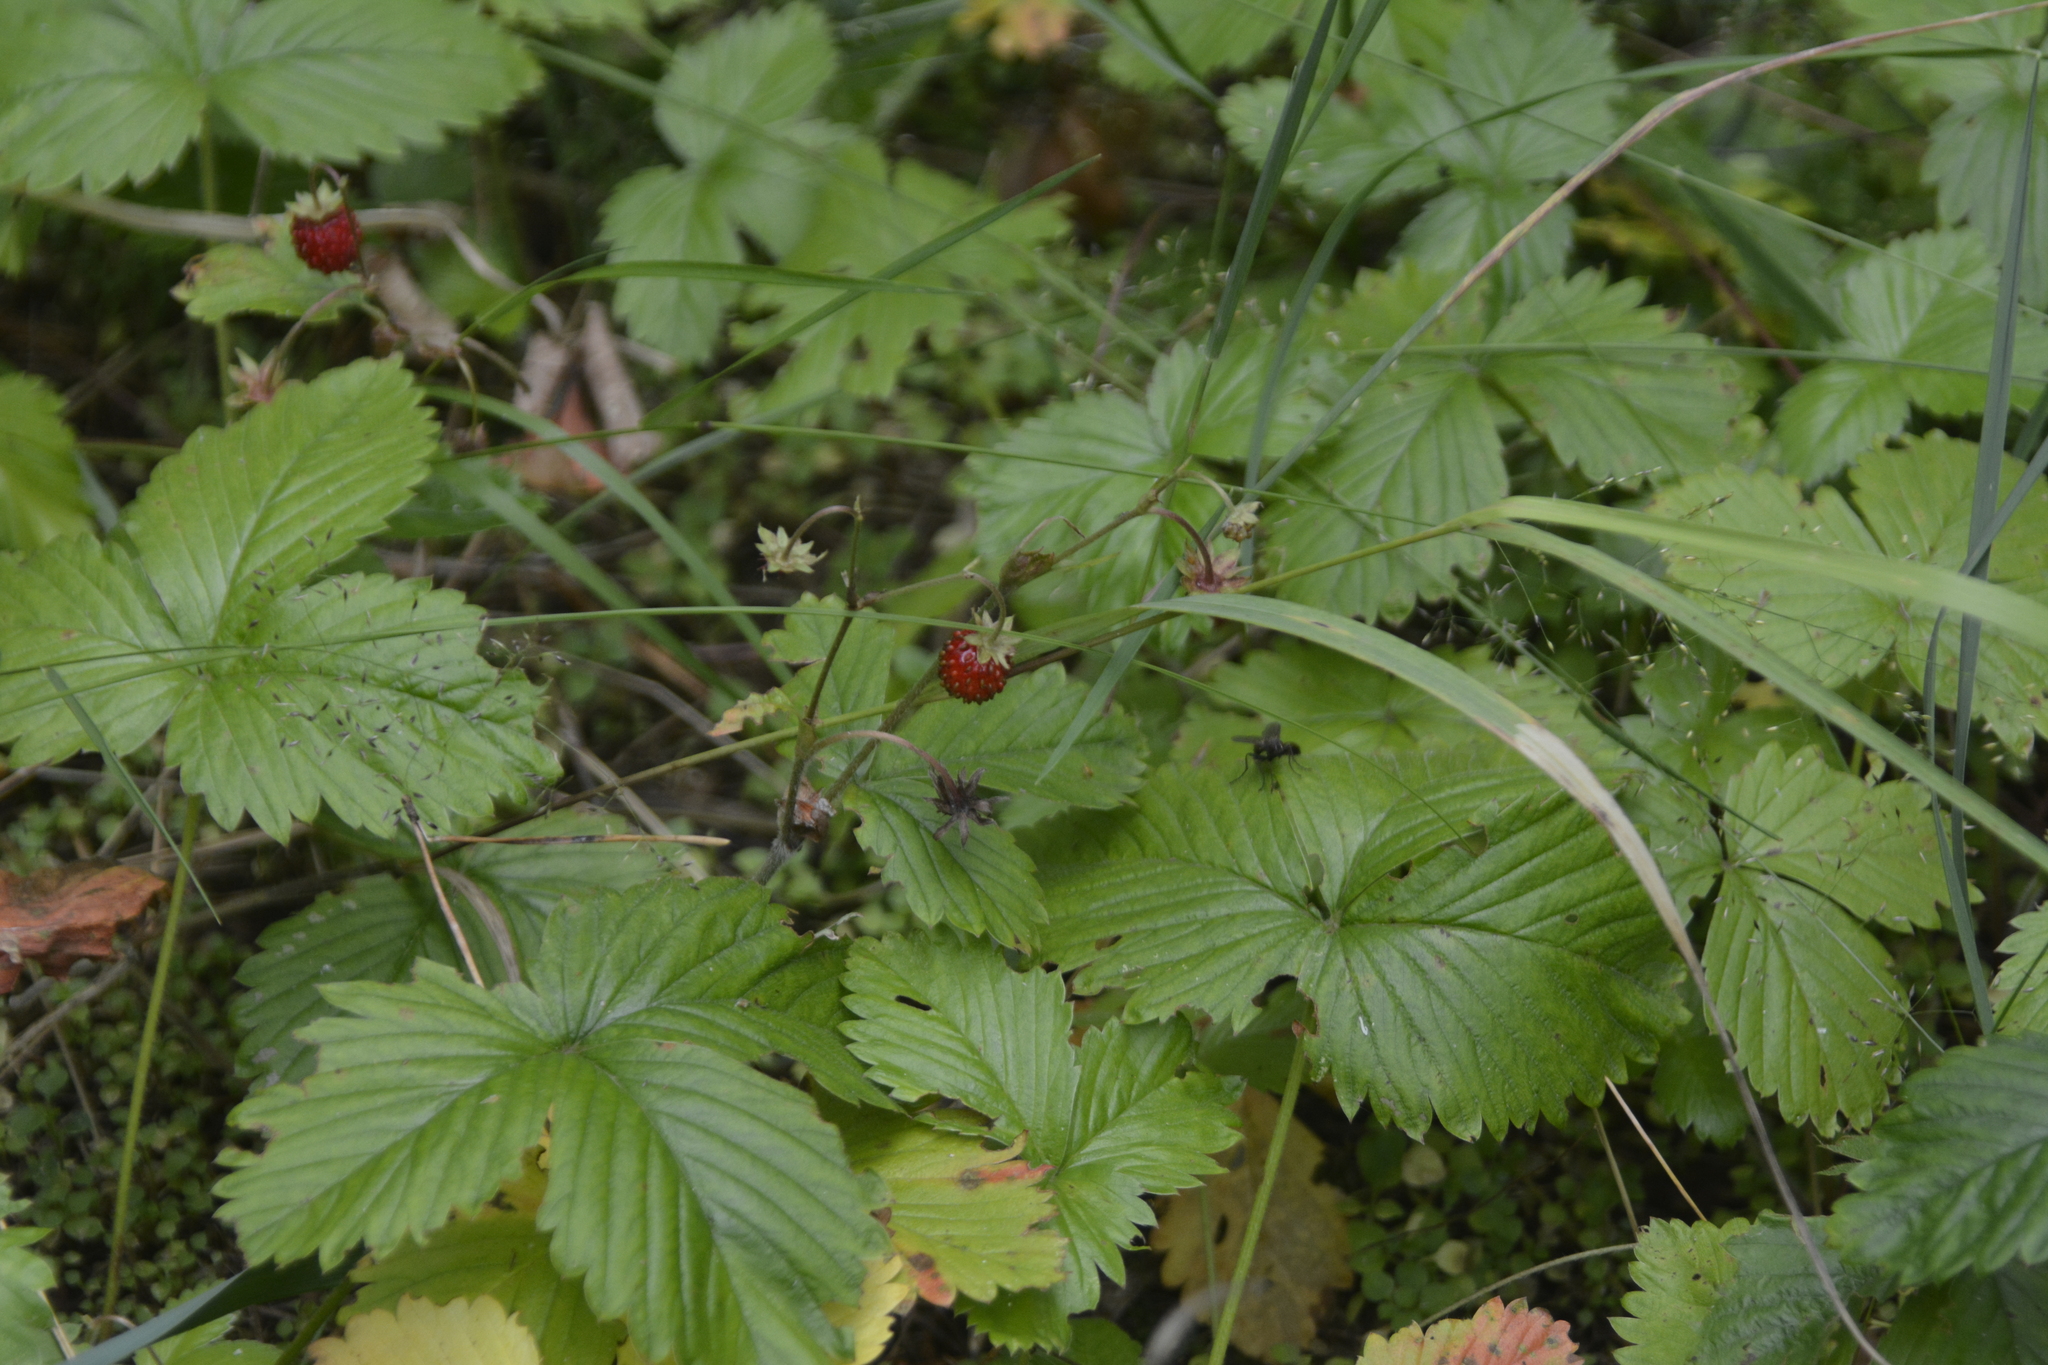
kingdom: Plantae
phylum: Tracheophyta
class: Magnoliopsida
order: Rosales
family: Rosaceae
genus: Fragaria
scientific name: Fragaria vesca
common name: Wild strawberry
